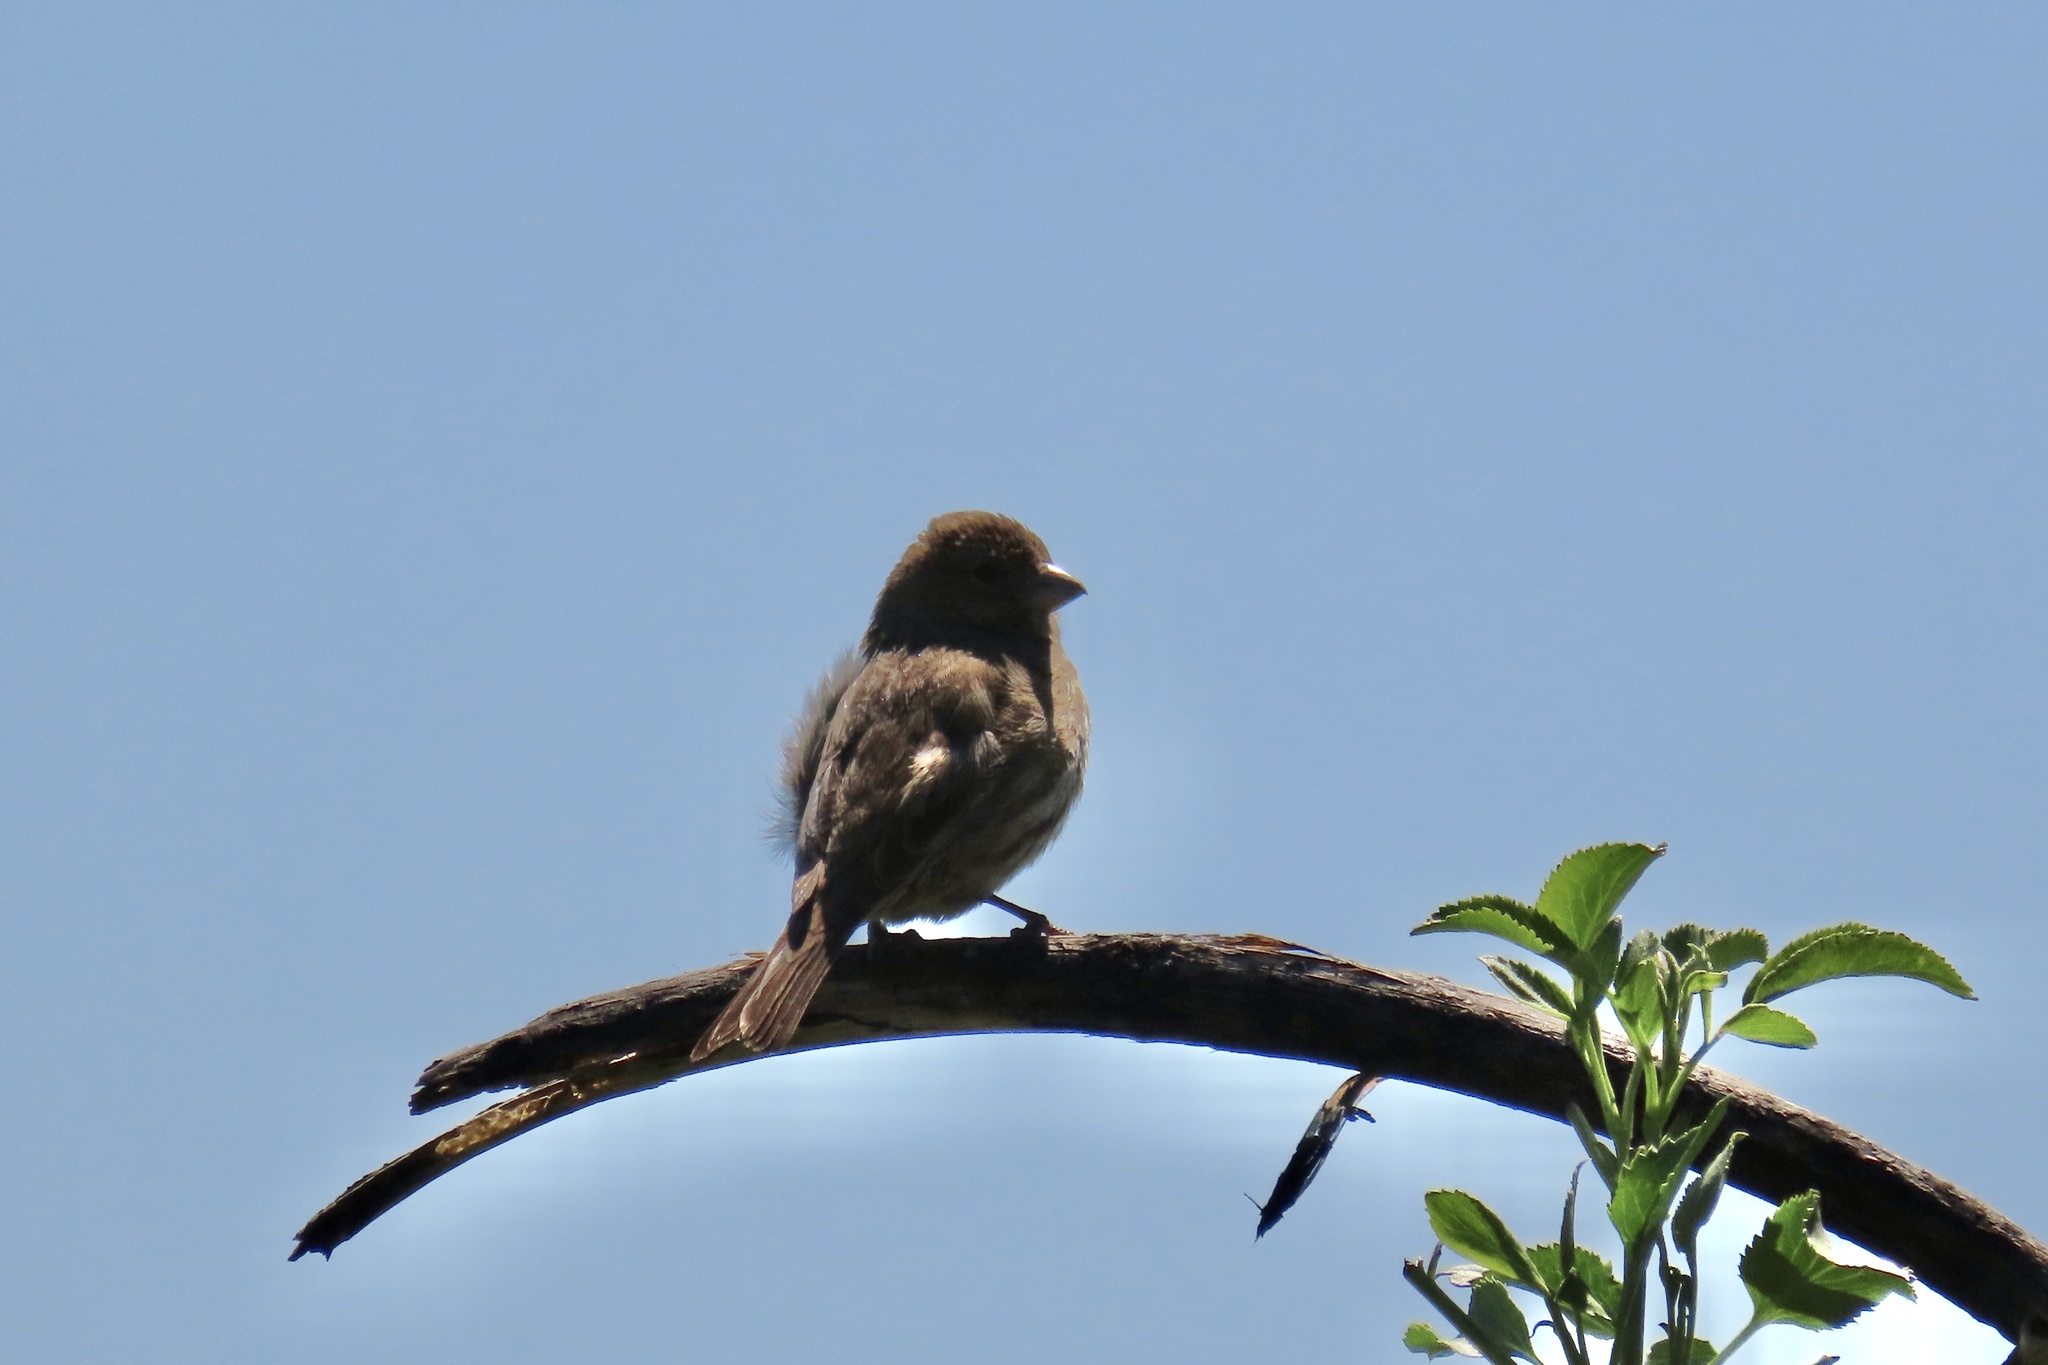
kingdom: Animalia
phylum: Chordata
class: Aves
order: Passeriformes
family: Fringillidae
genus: Haemorhous
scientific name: Haemorhous mexicanus
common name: House finch
